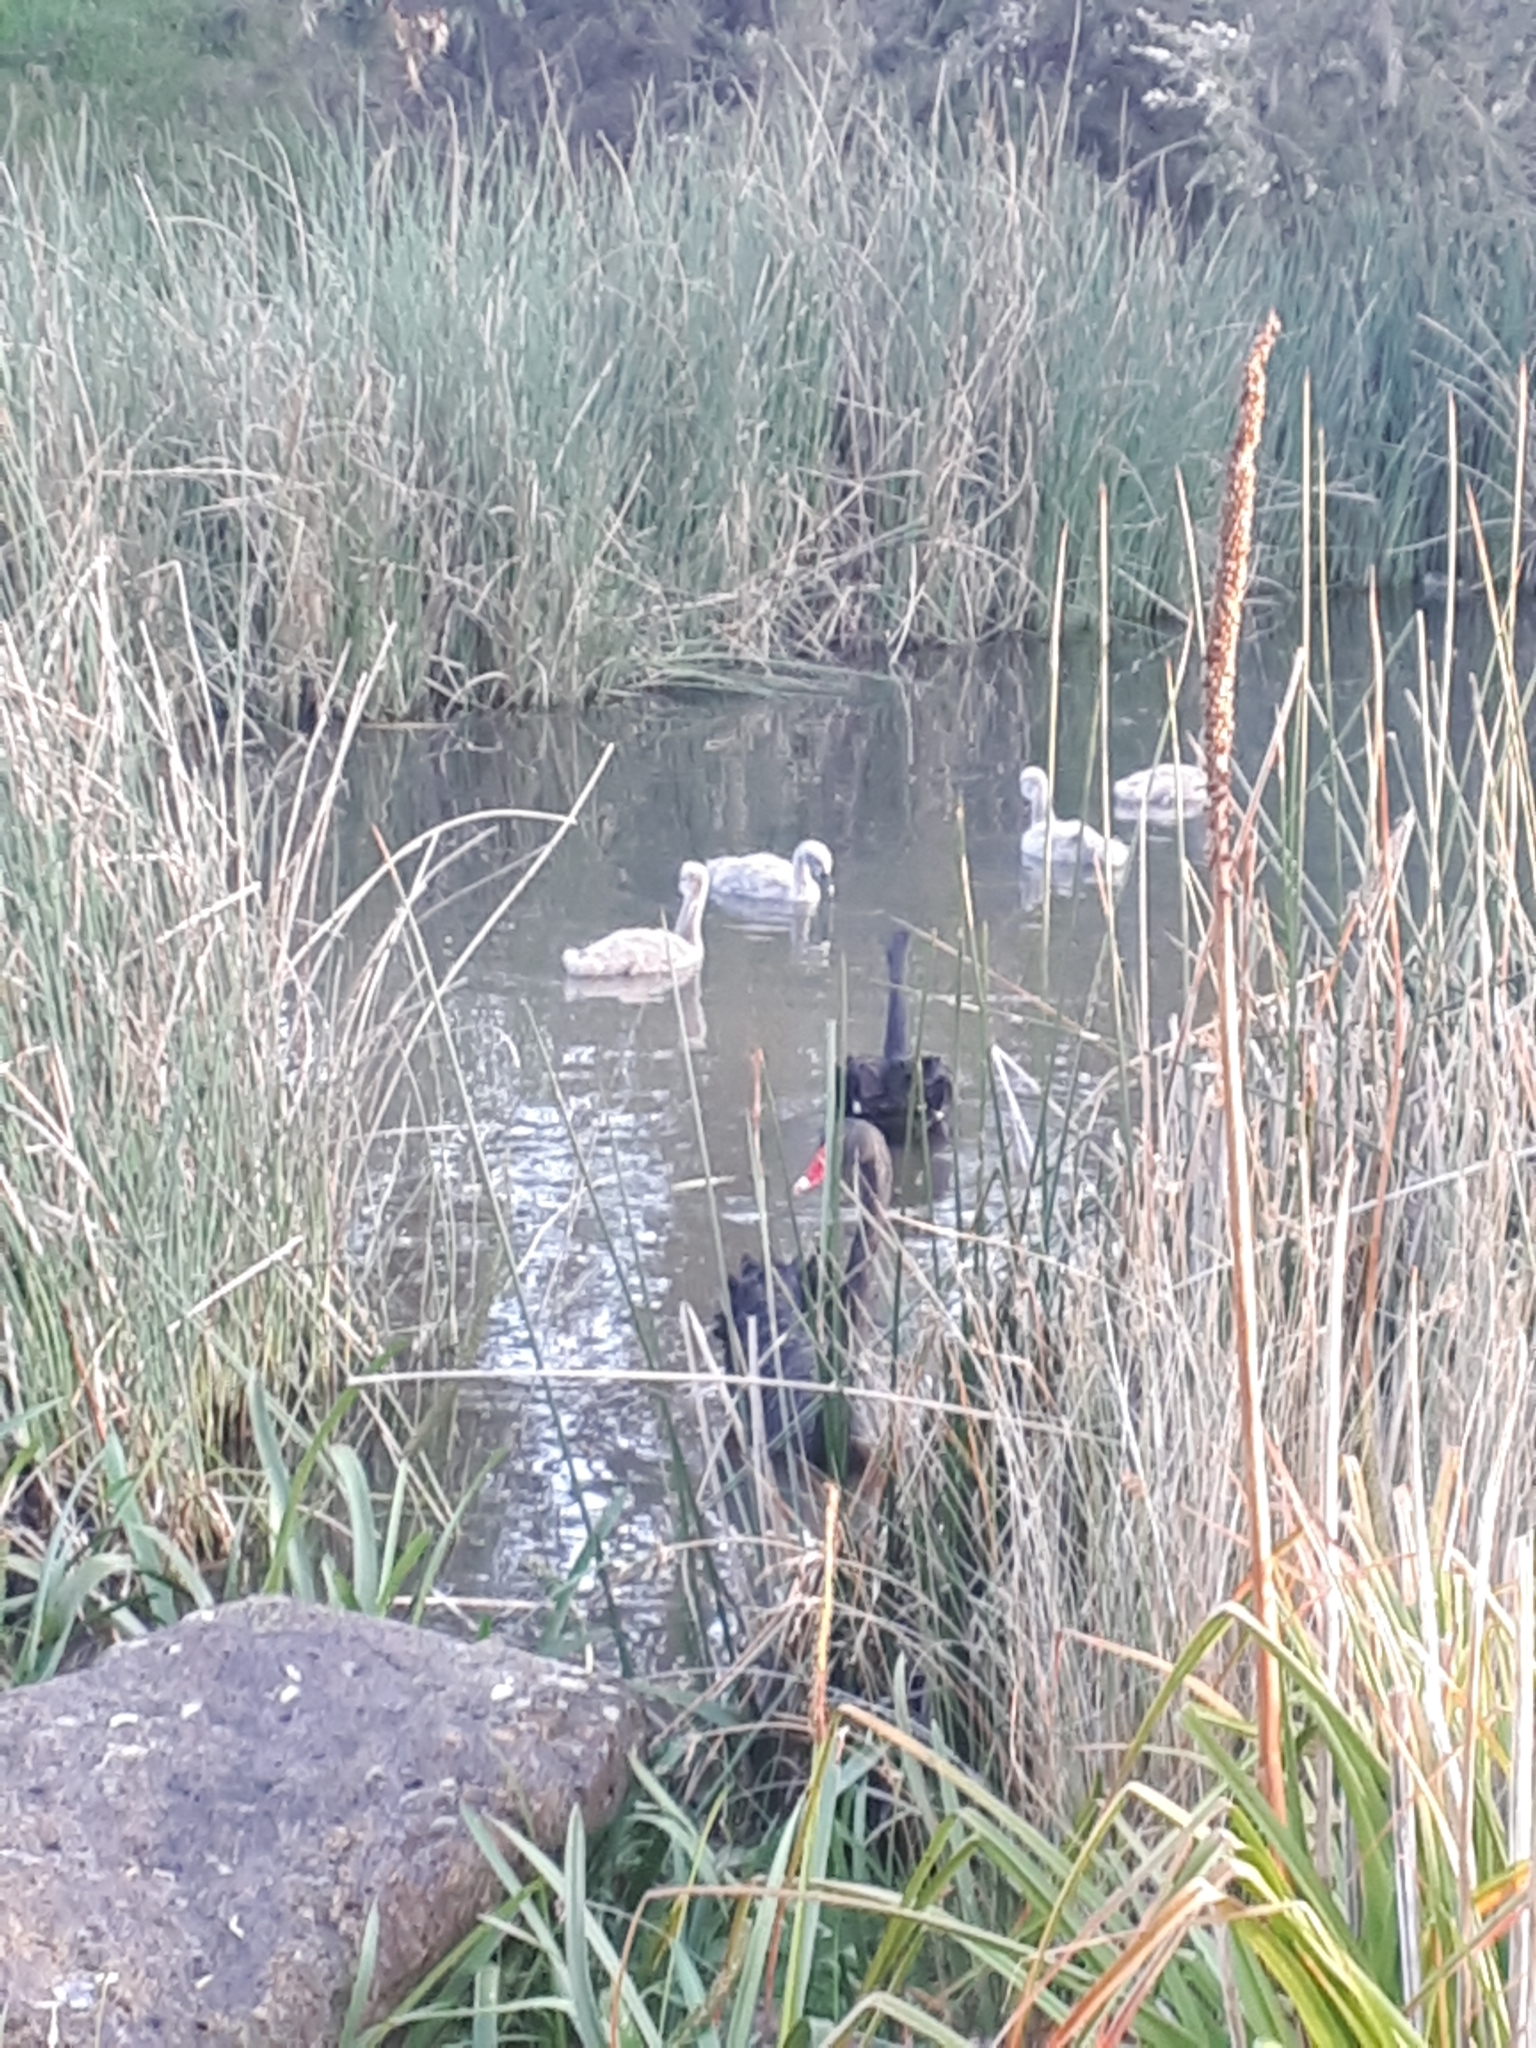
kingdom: Animalia
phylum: Chordata
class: Aves
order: Anseriformes
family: Anatidae
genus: Cygnus
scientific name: Cygnus atratus
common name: Black swan
